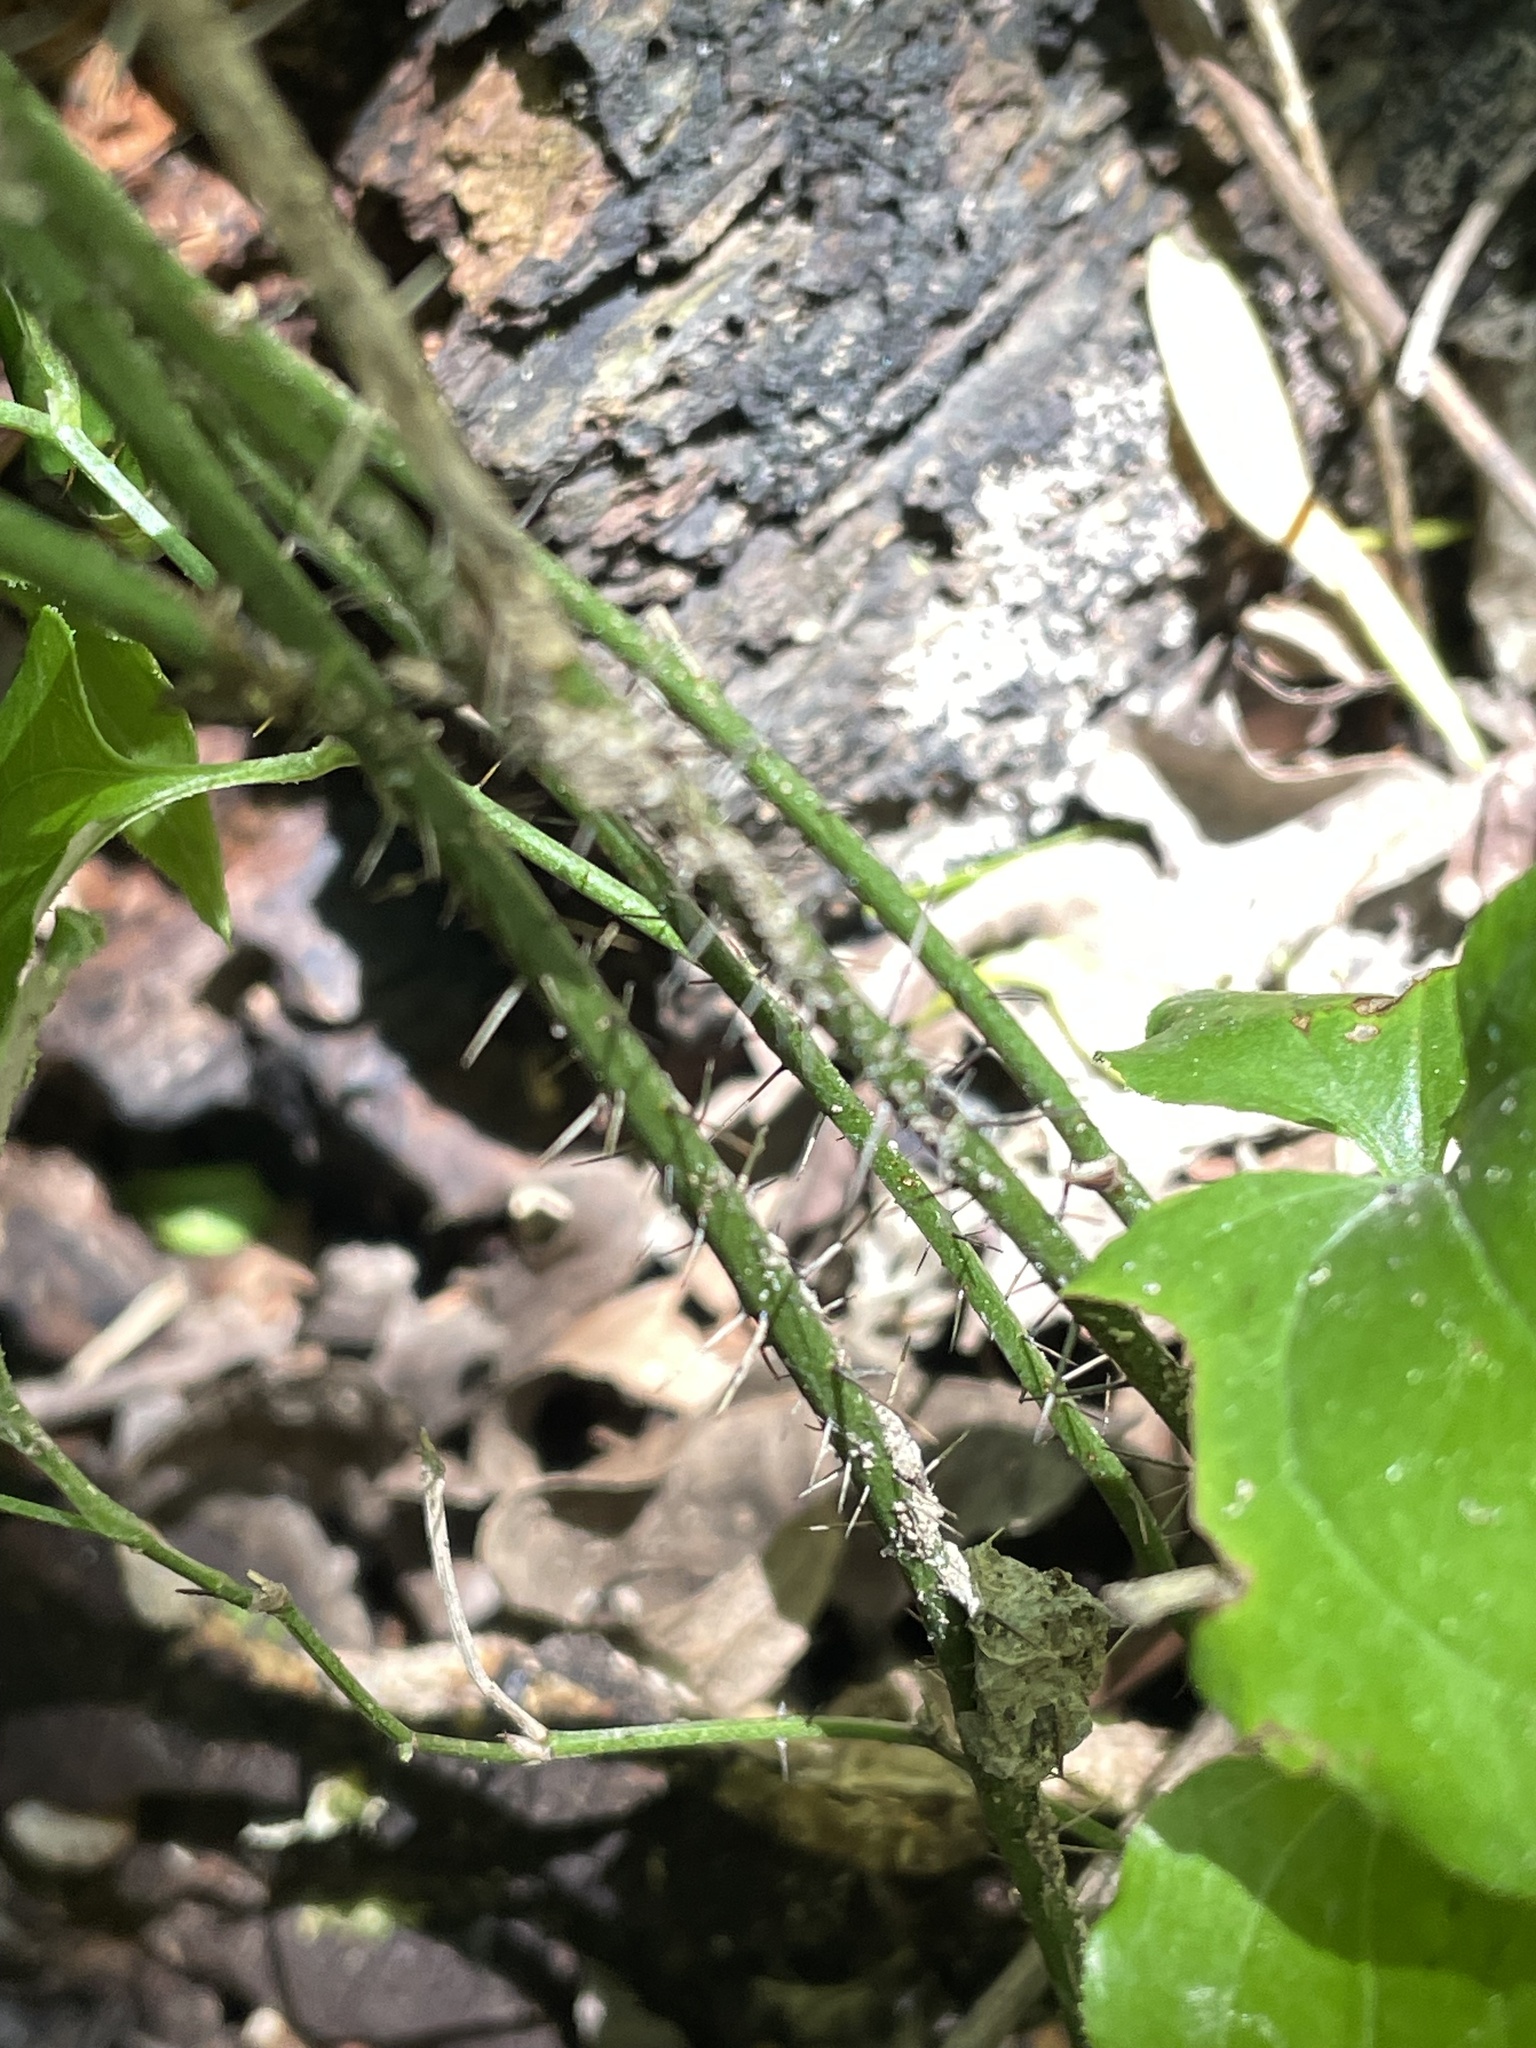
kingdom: Plantae
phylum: Tracheophyta
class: Liliopsida
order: Liliales
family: Smilacaceae
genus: Smilax
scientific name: Smilax tamnoides
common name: Hellfetter
